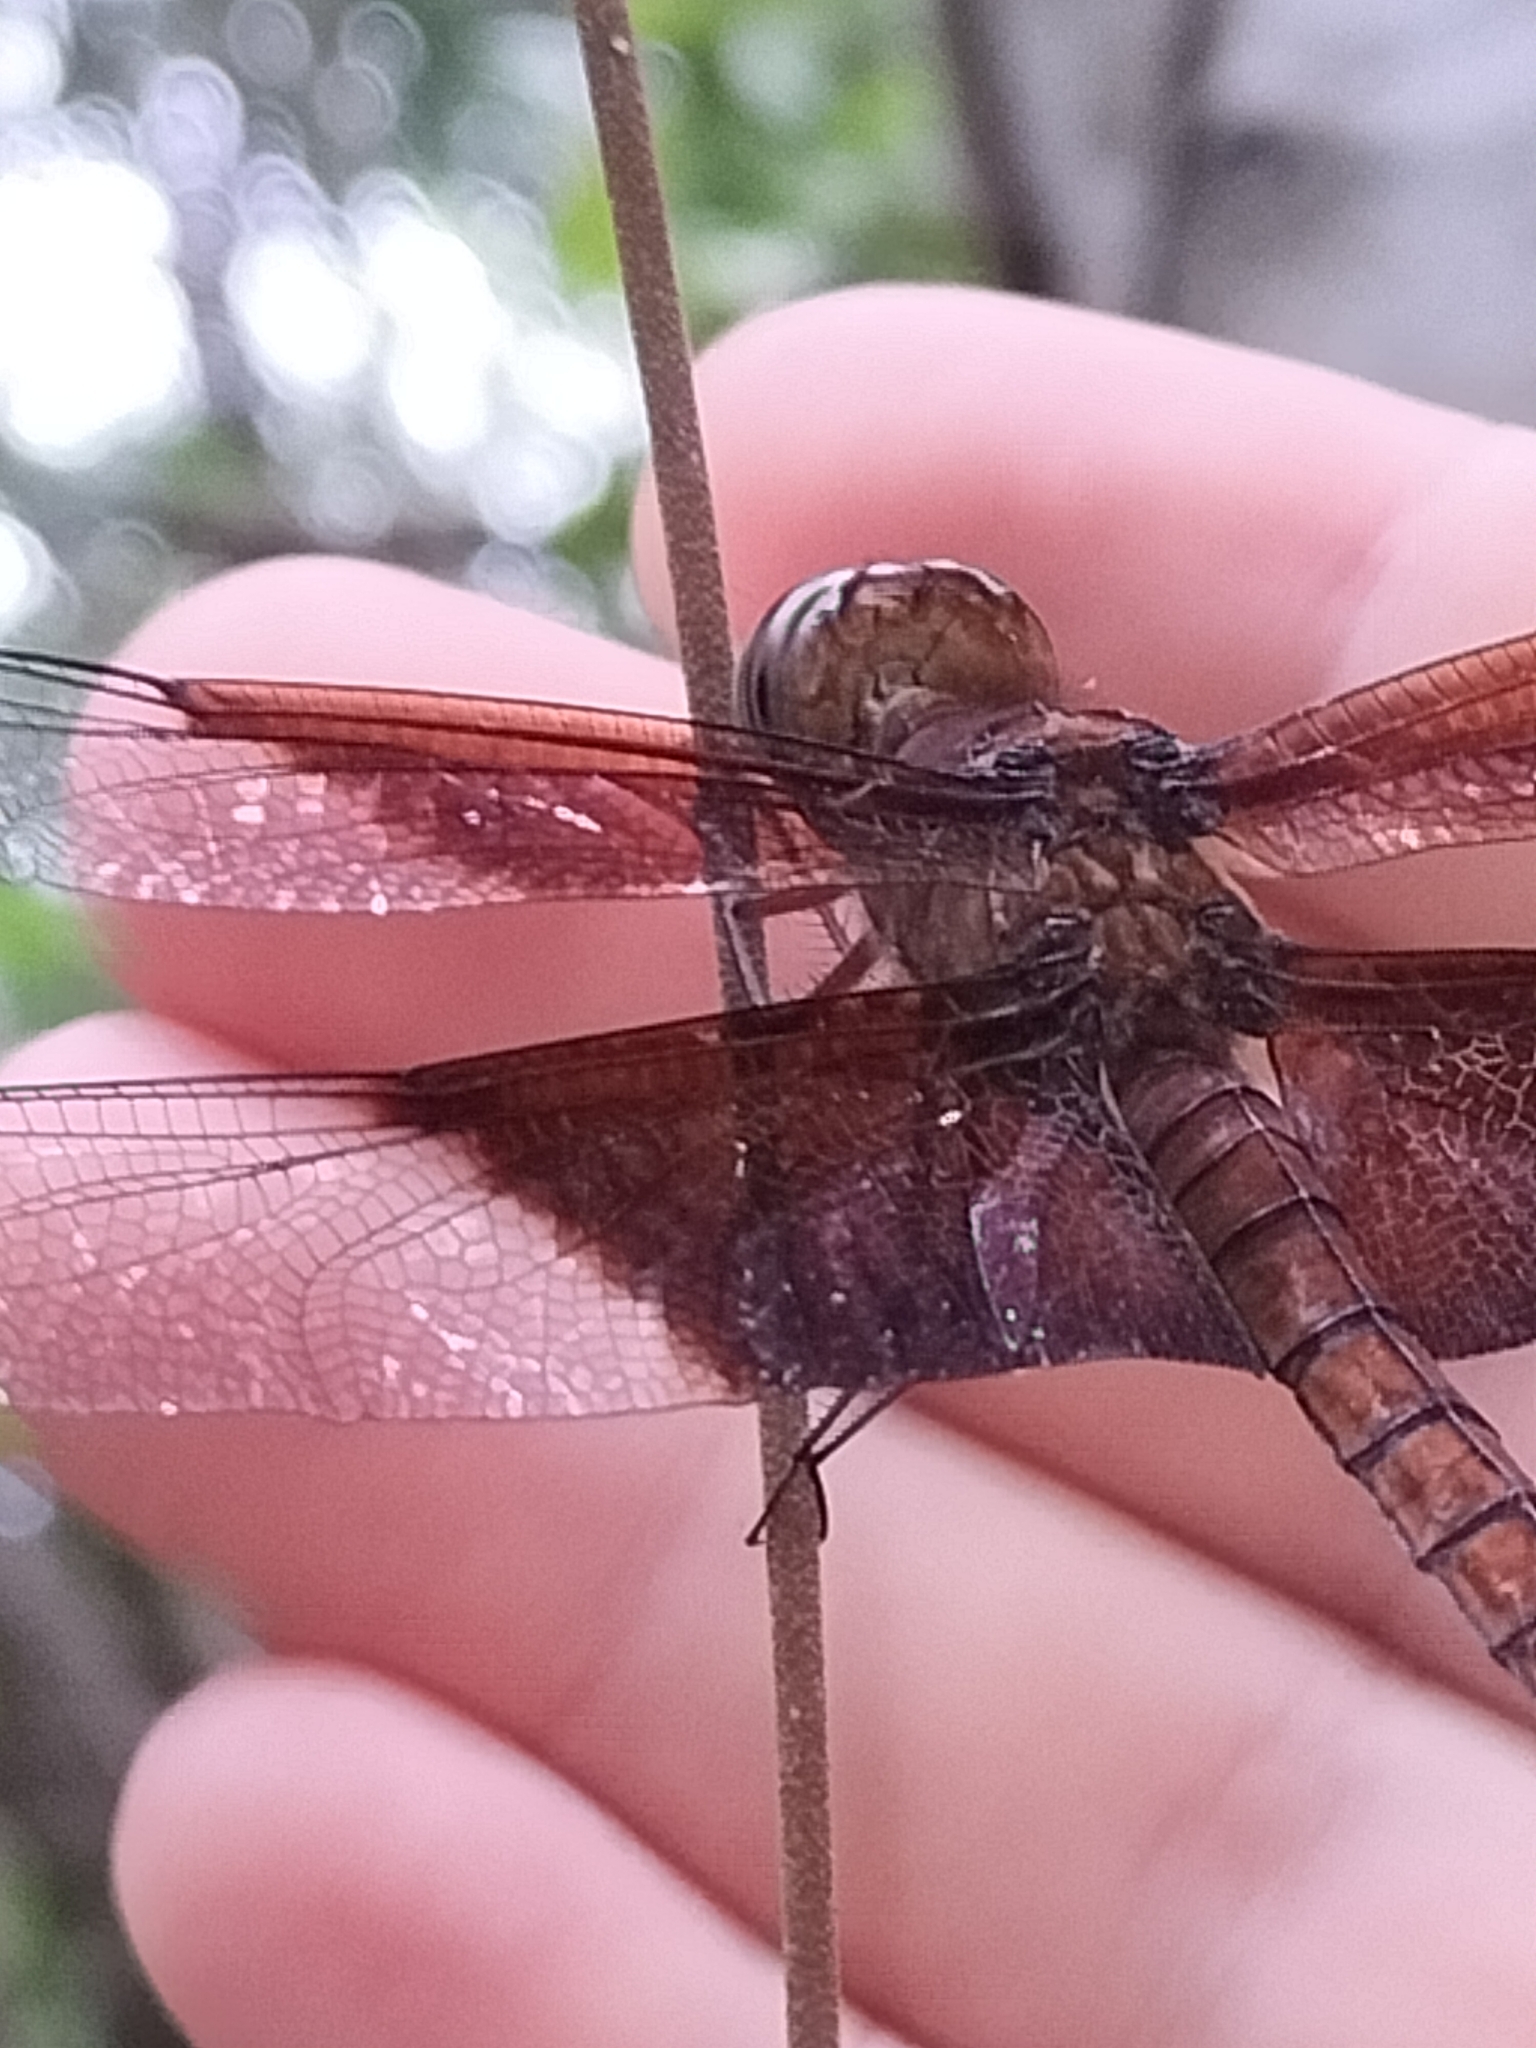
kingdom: Animalia
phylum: Arthropoda
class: Insecta
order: Odonata
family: Libellulidae
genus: Camacinia
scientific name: Camacinia othello
